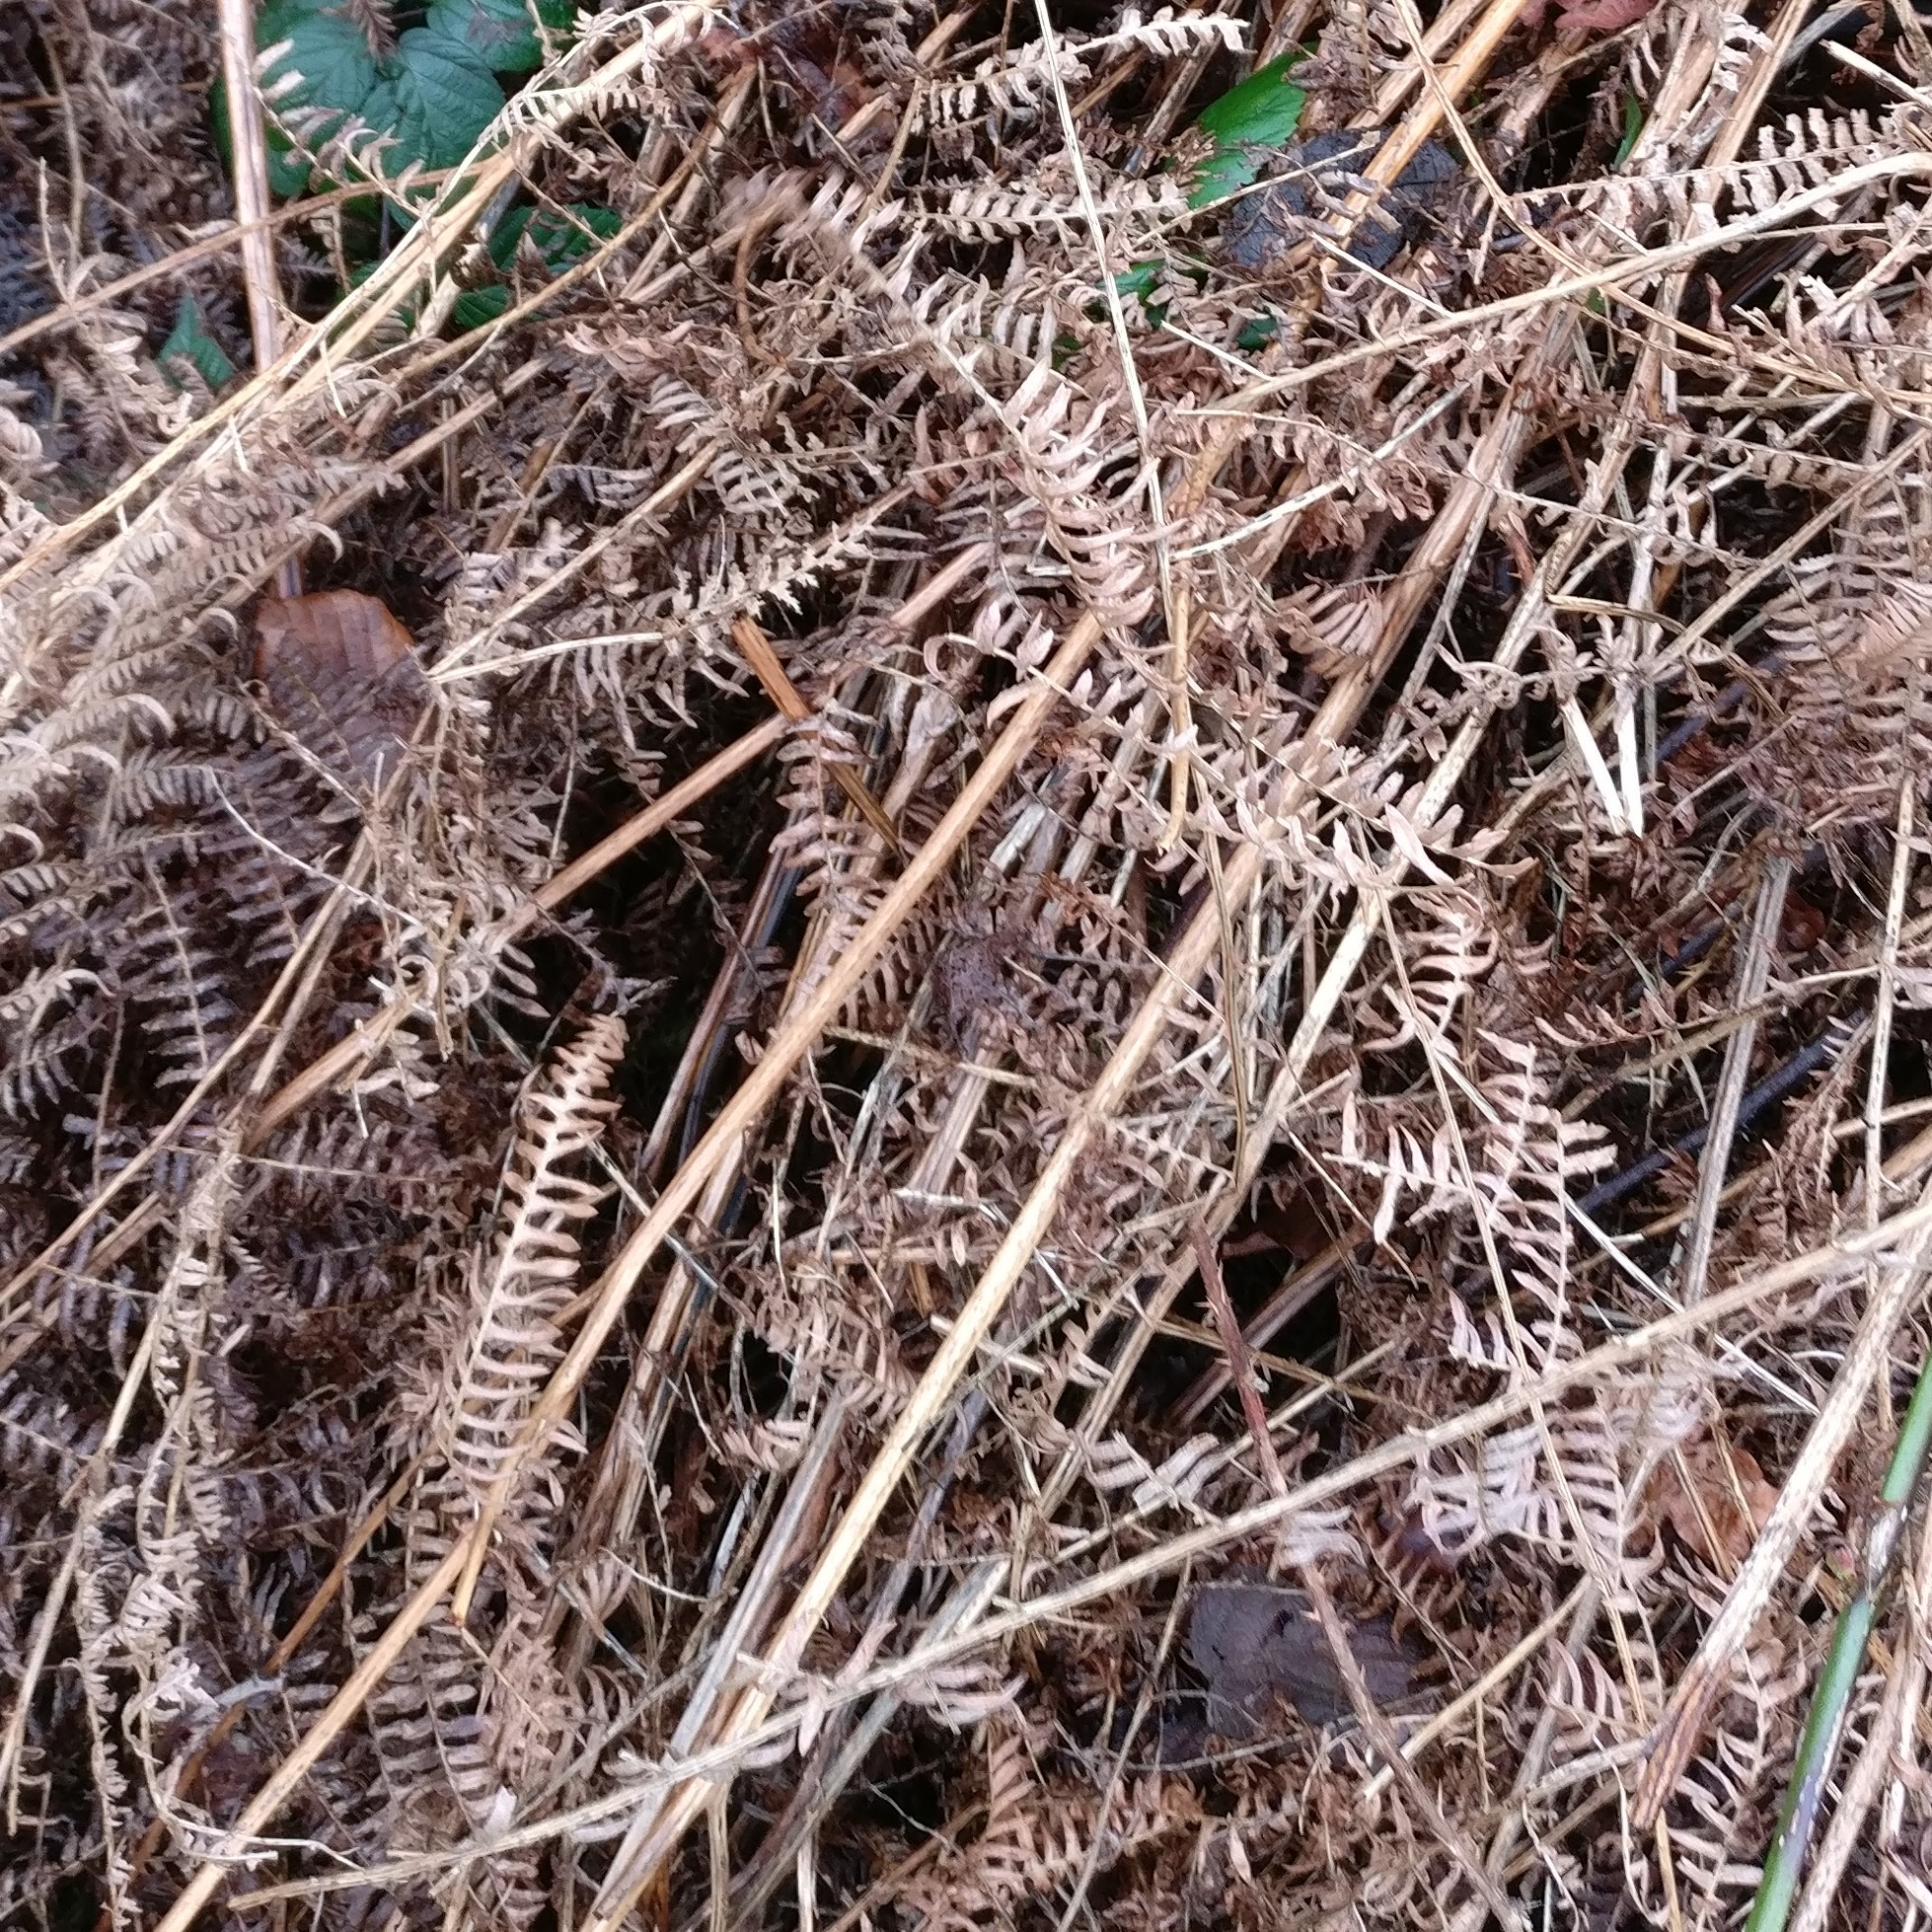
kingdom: Plantae
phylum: Tracheophyta
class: Polypodiopsida
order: Polypodiales
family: Dennstaedtiaceae
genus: Pteridium
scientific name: Pteridium aquilinum
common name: Bracken
